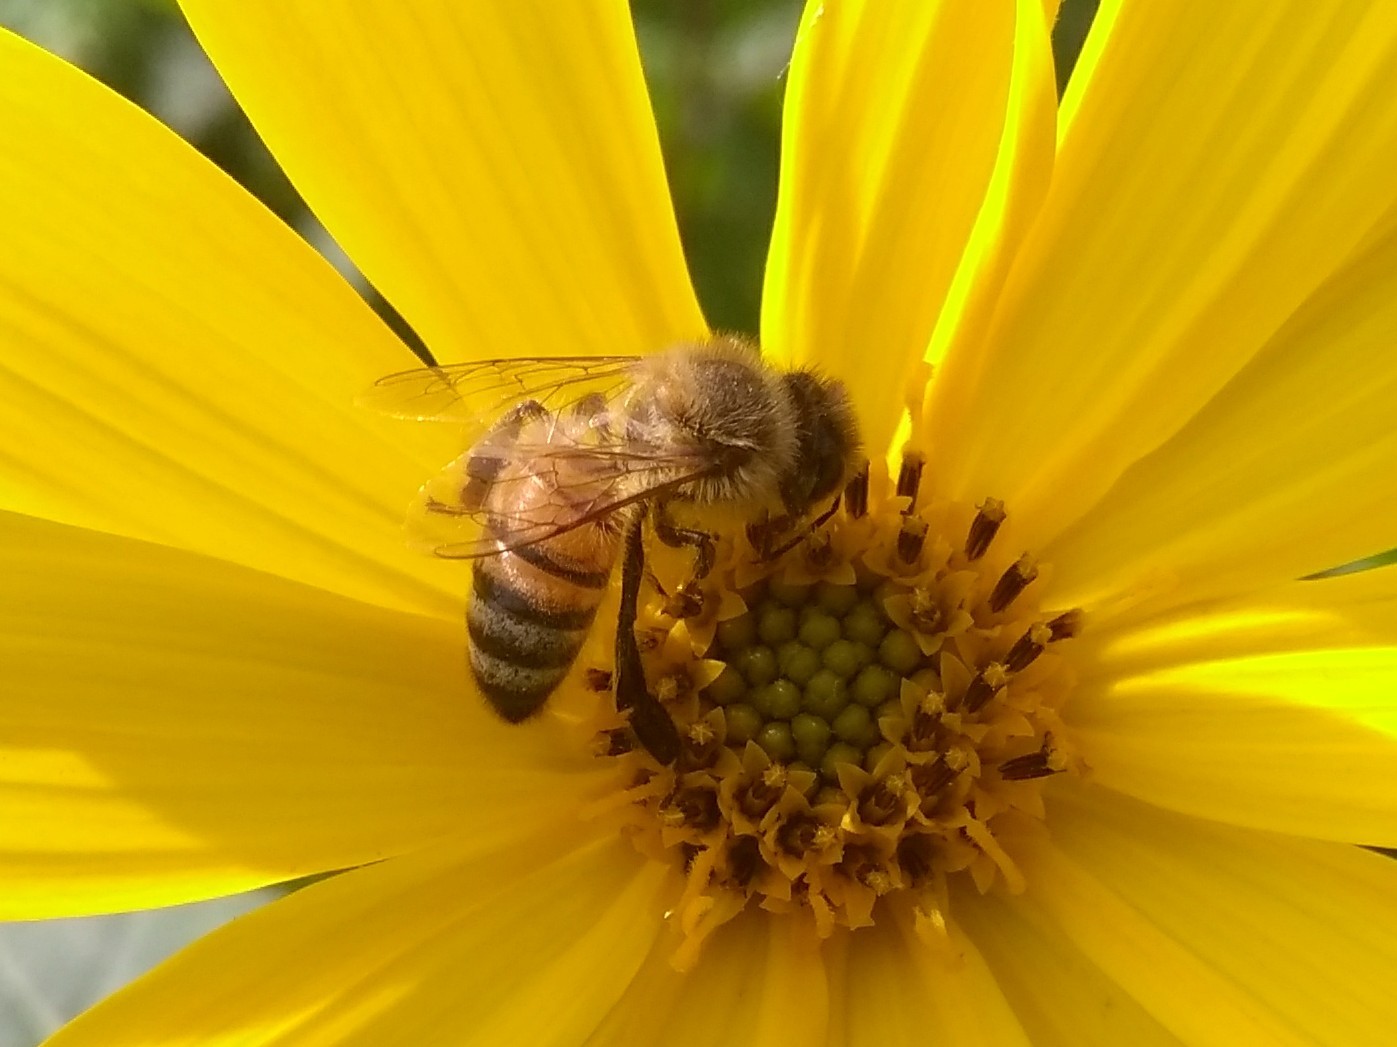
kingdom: Animalia
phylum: Arthropoda
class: Insecta
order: Hymenoptera
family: Apidae
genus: Apis
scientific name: Apis mellifera
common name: Honey bee
